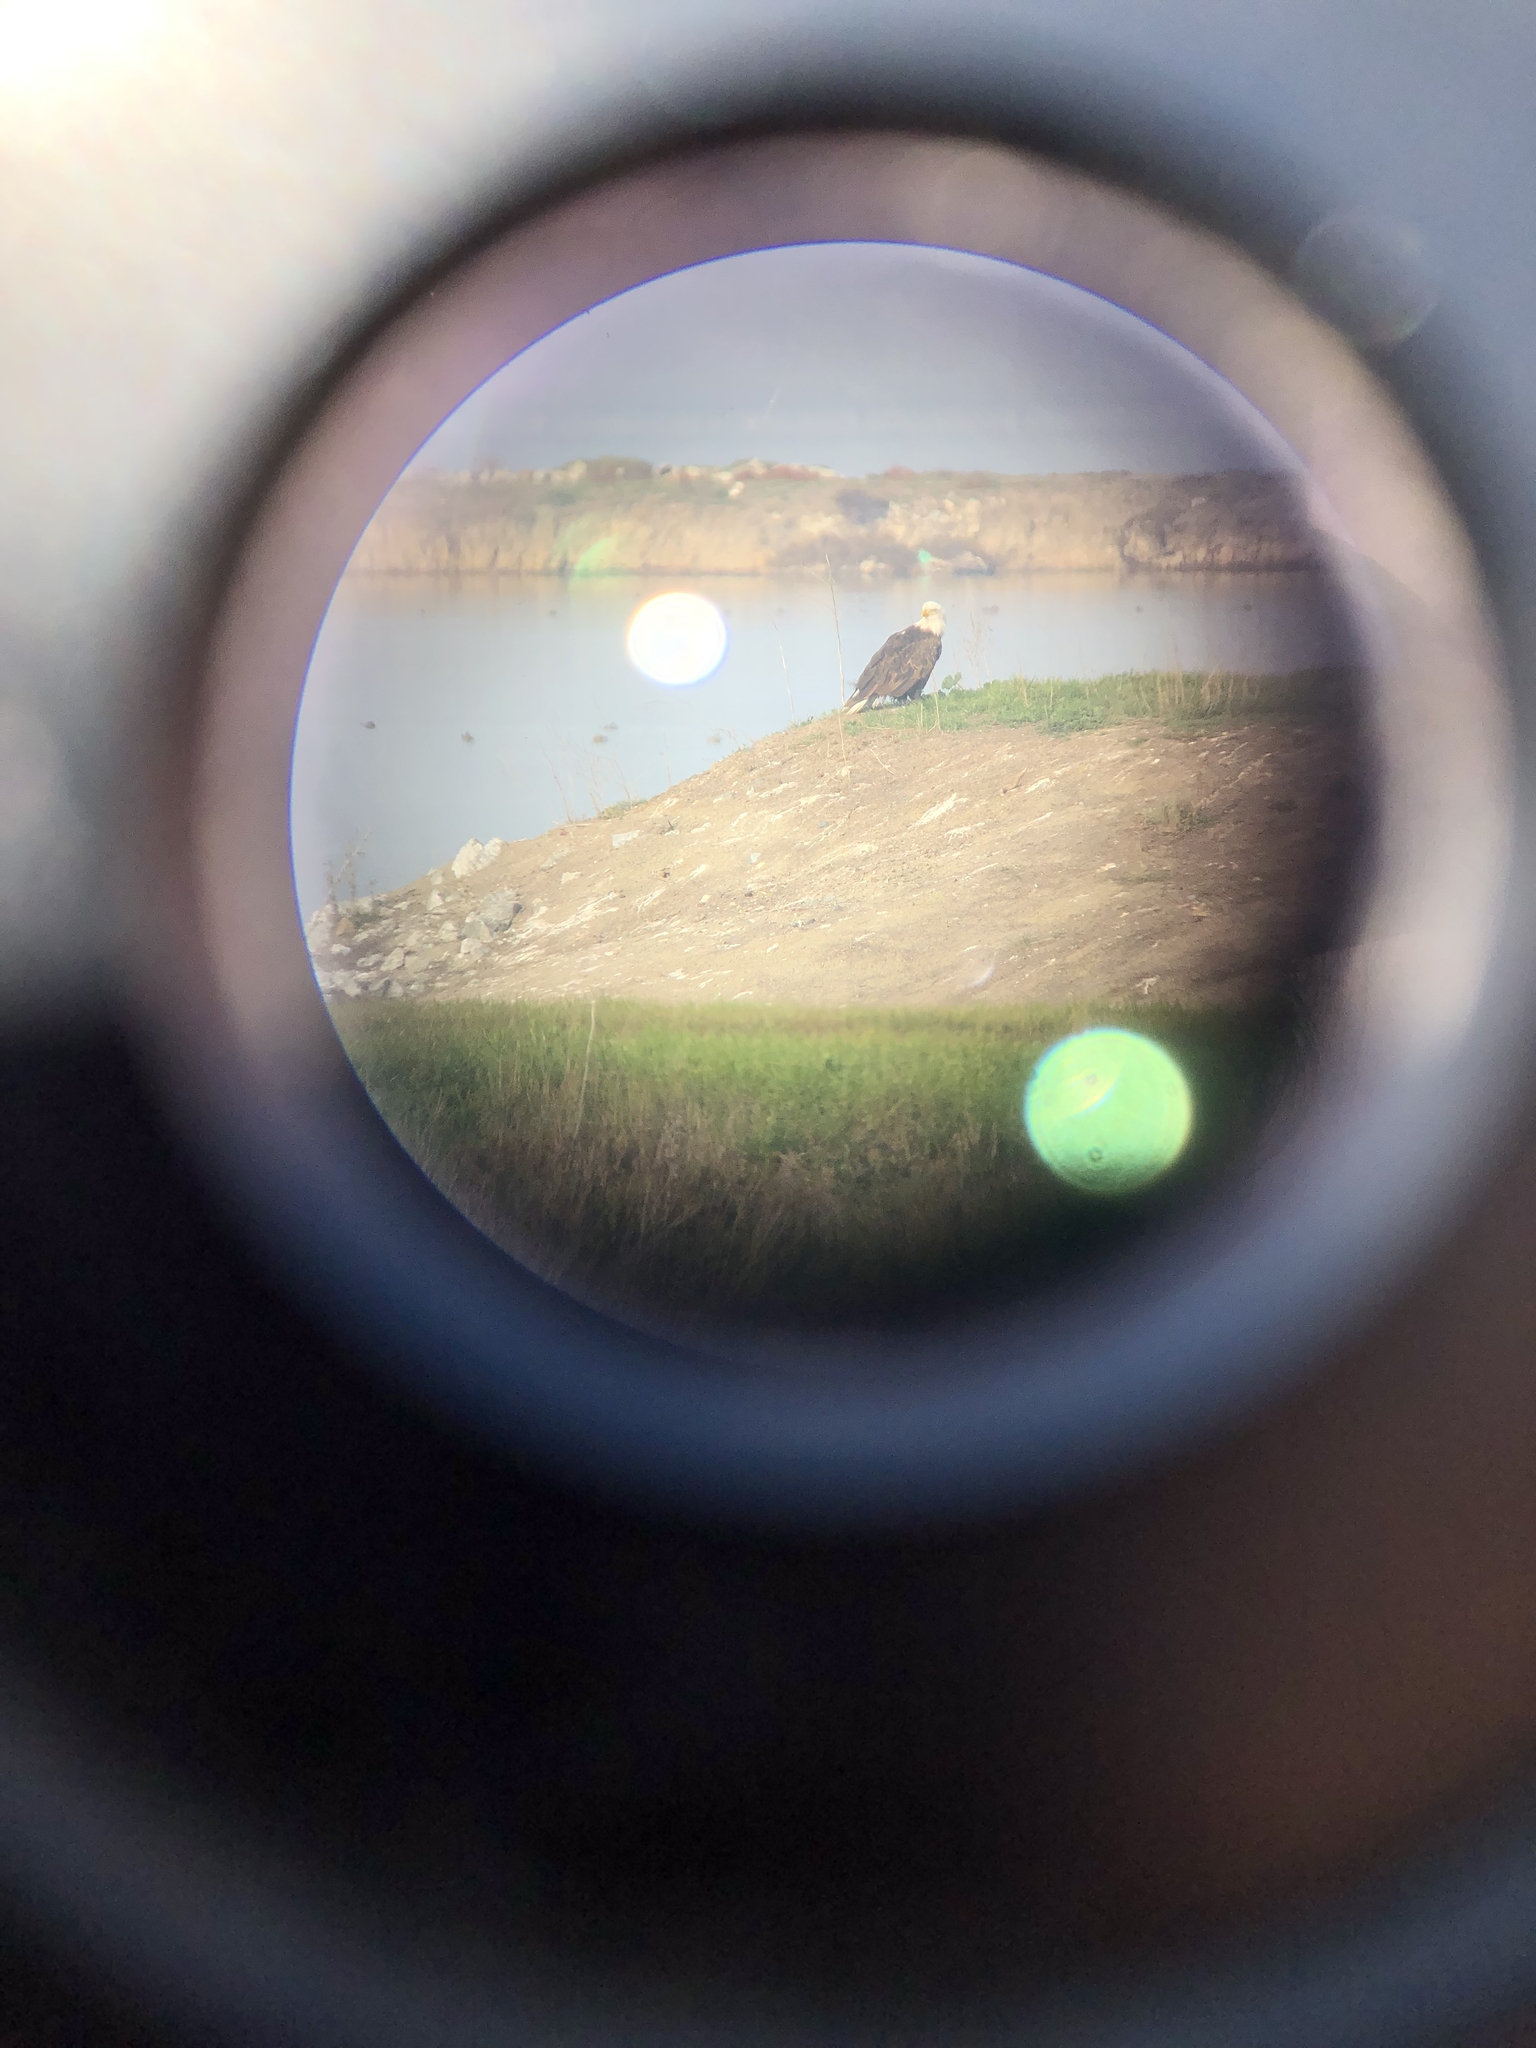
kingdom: Animalia
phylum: Chordata
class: Aves
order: Accipitriformes
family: Accipitridae
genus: Haliaeetus
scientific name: Haliaeetus leucocephalus
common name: Bald eagle
